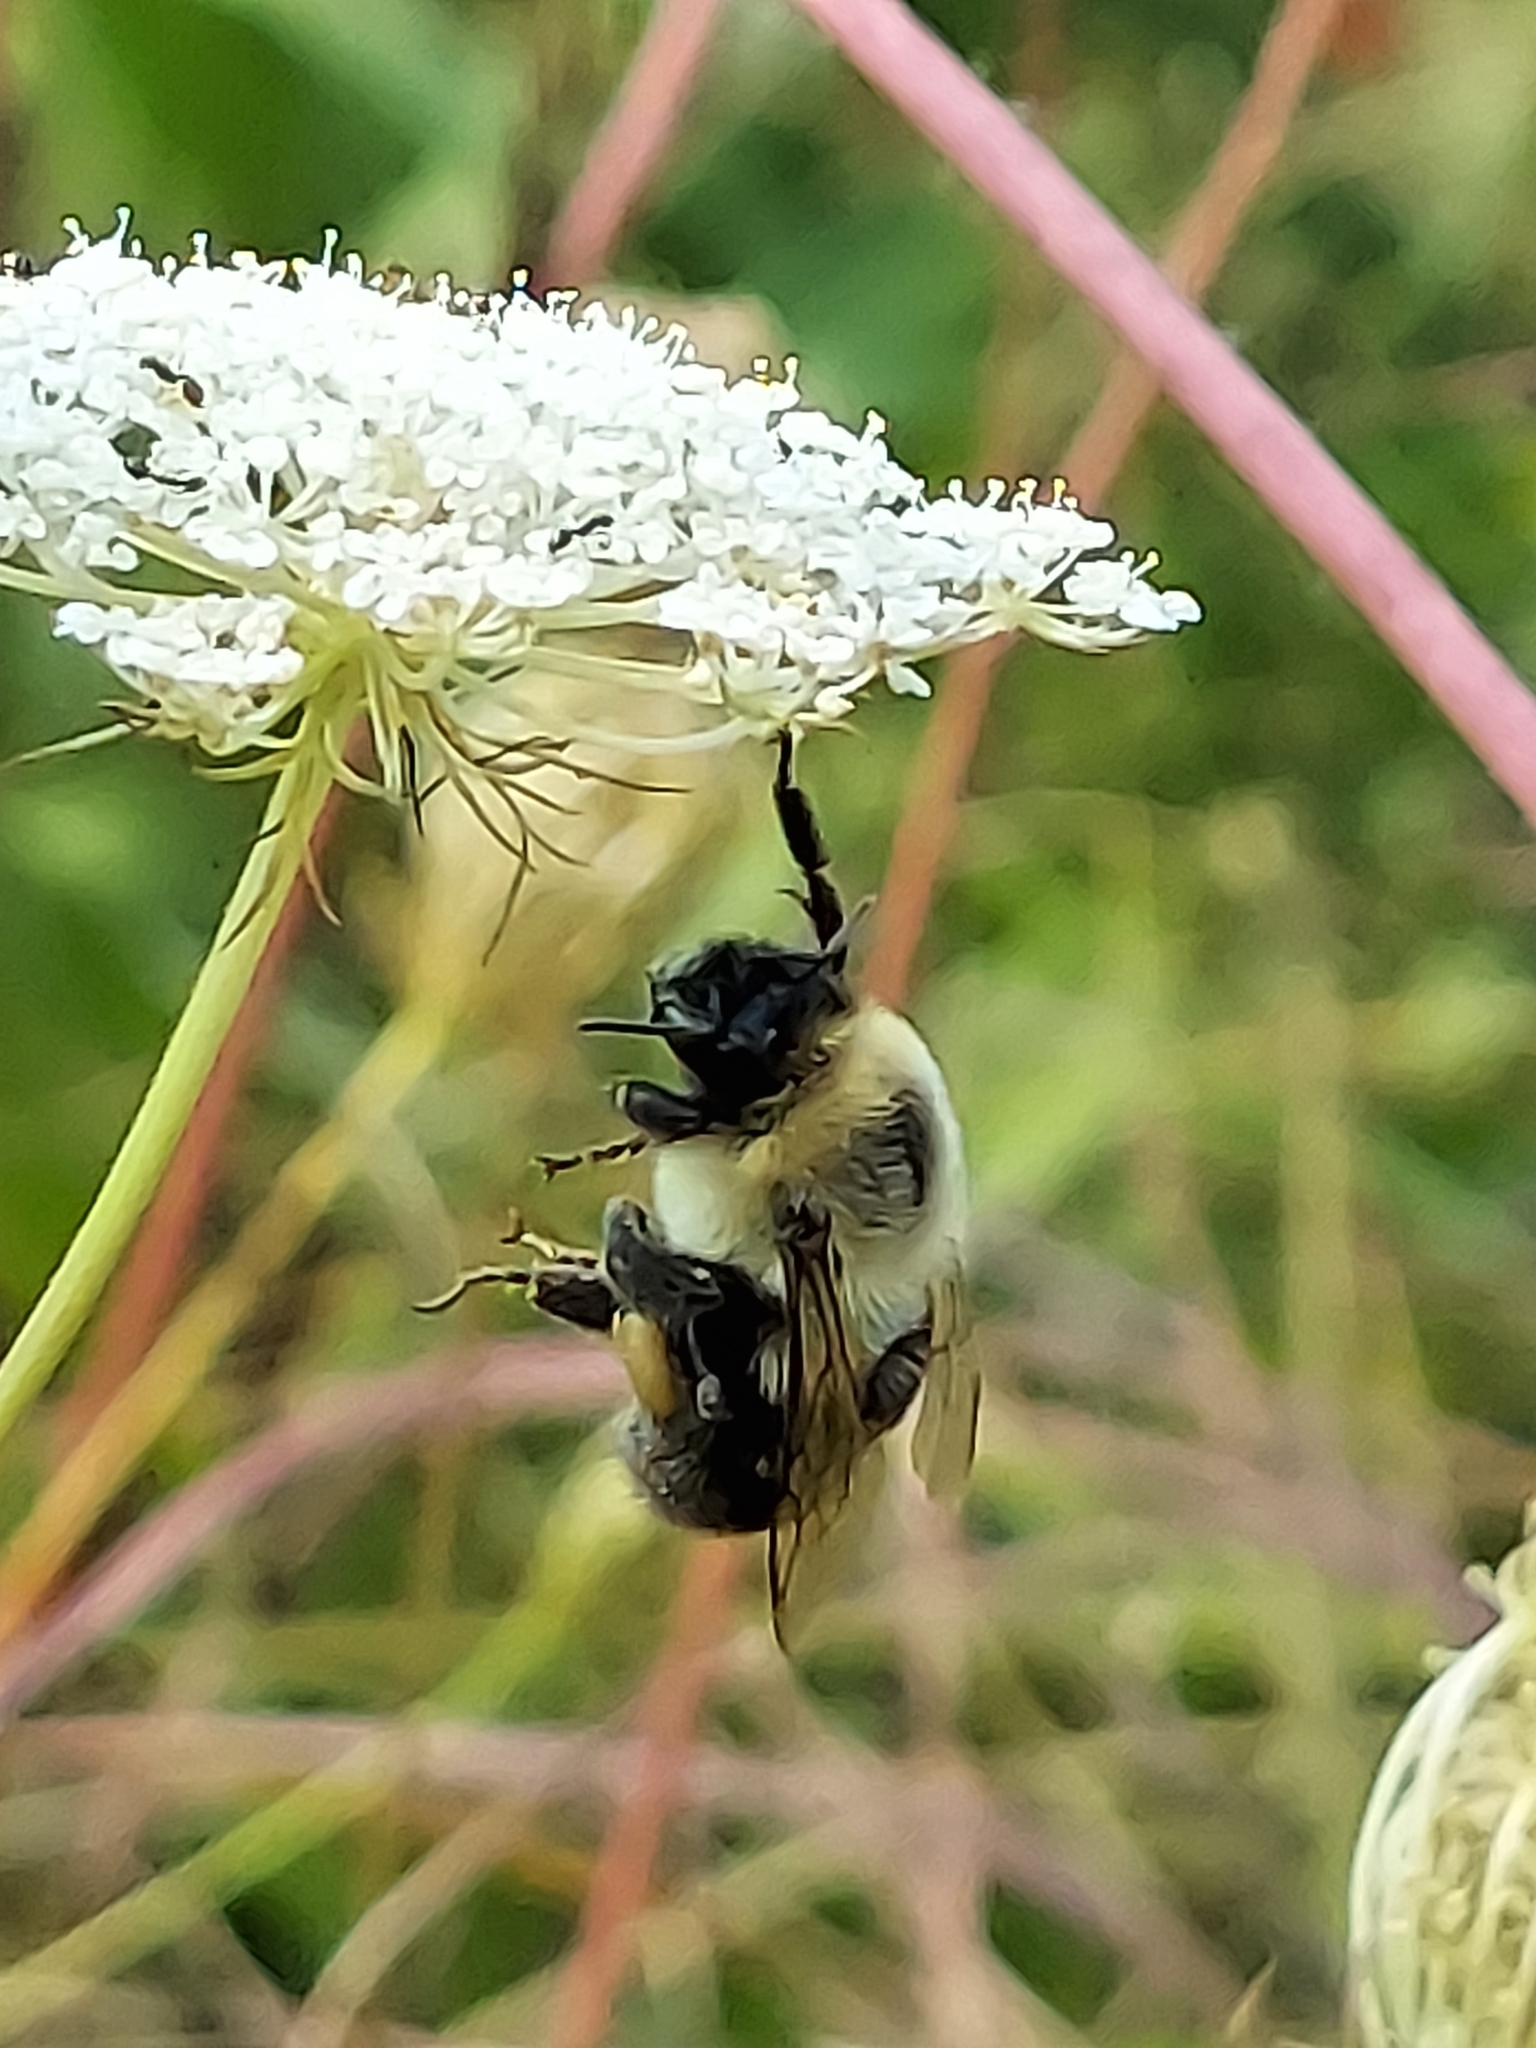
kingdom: Animalia
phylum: Arthropoda
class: Insecta
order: Hymenoptera
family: Apidae
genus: Bombus
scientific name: Bombus impatiens
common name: Common eastern bumble bee
